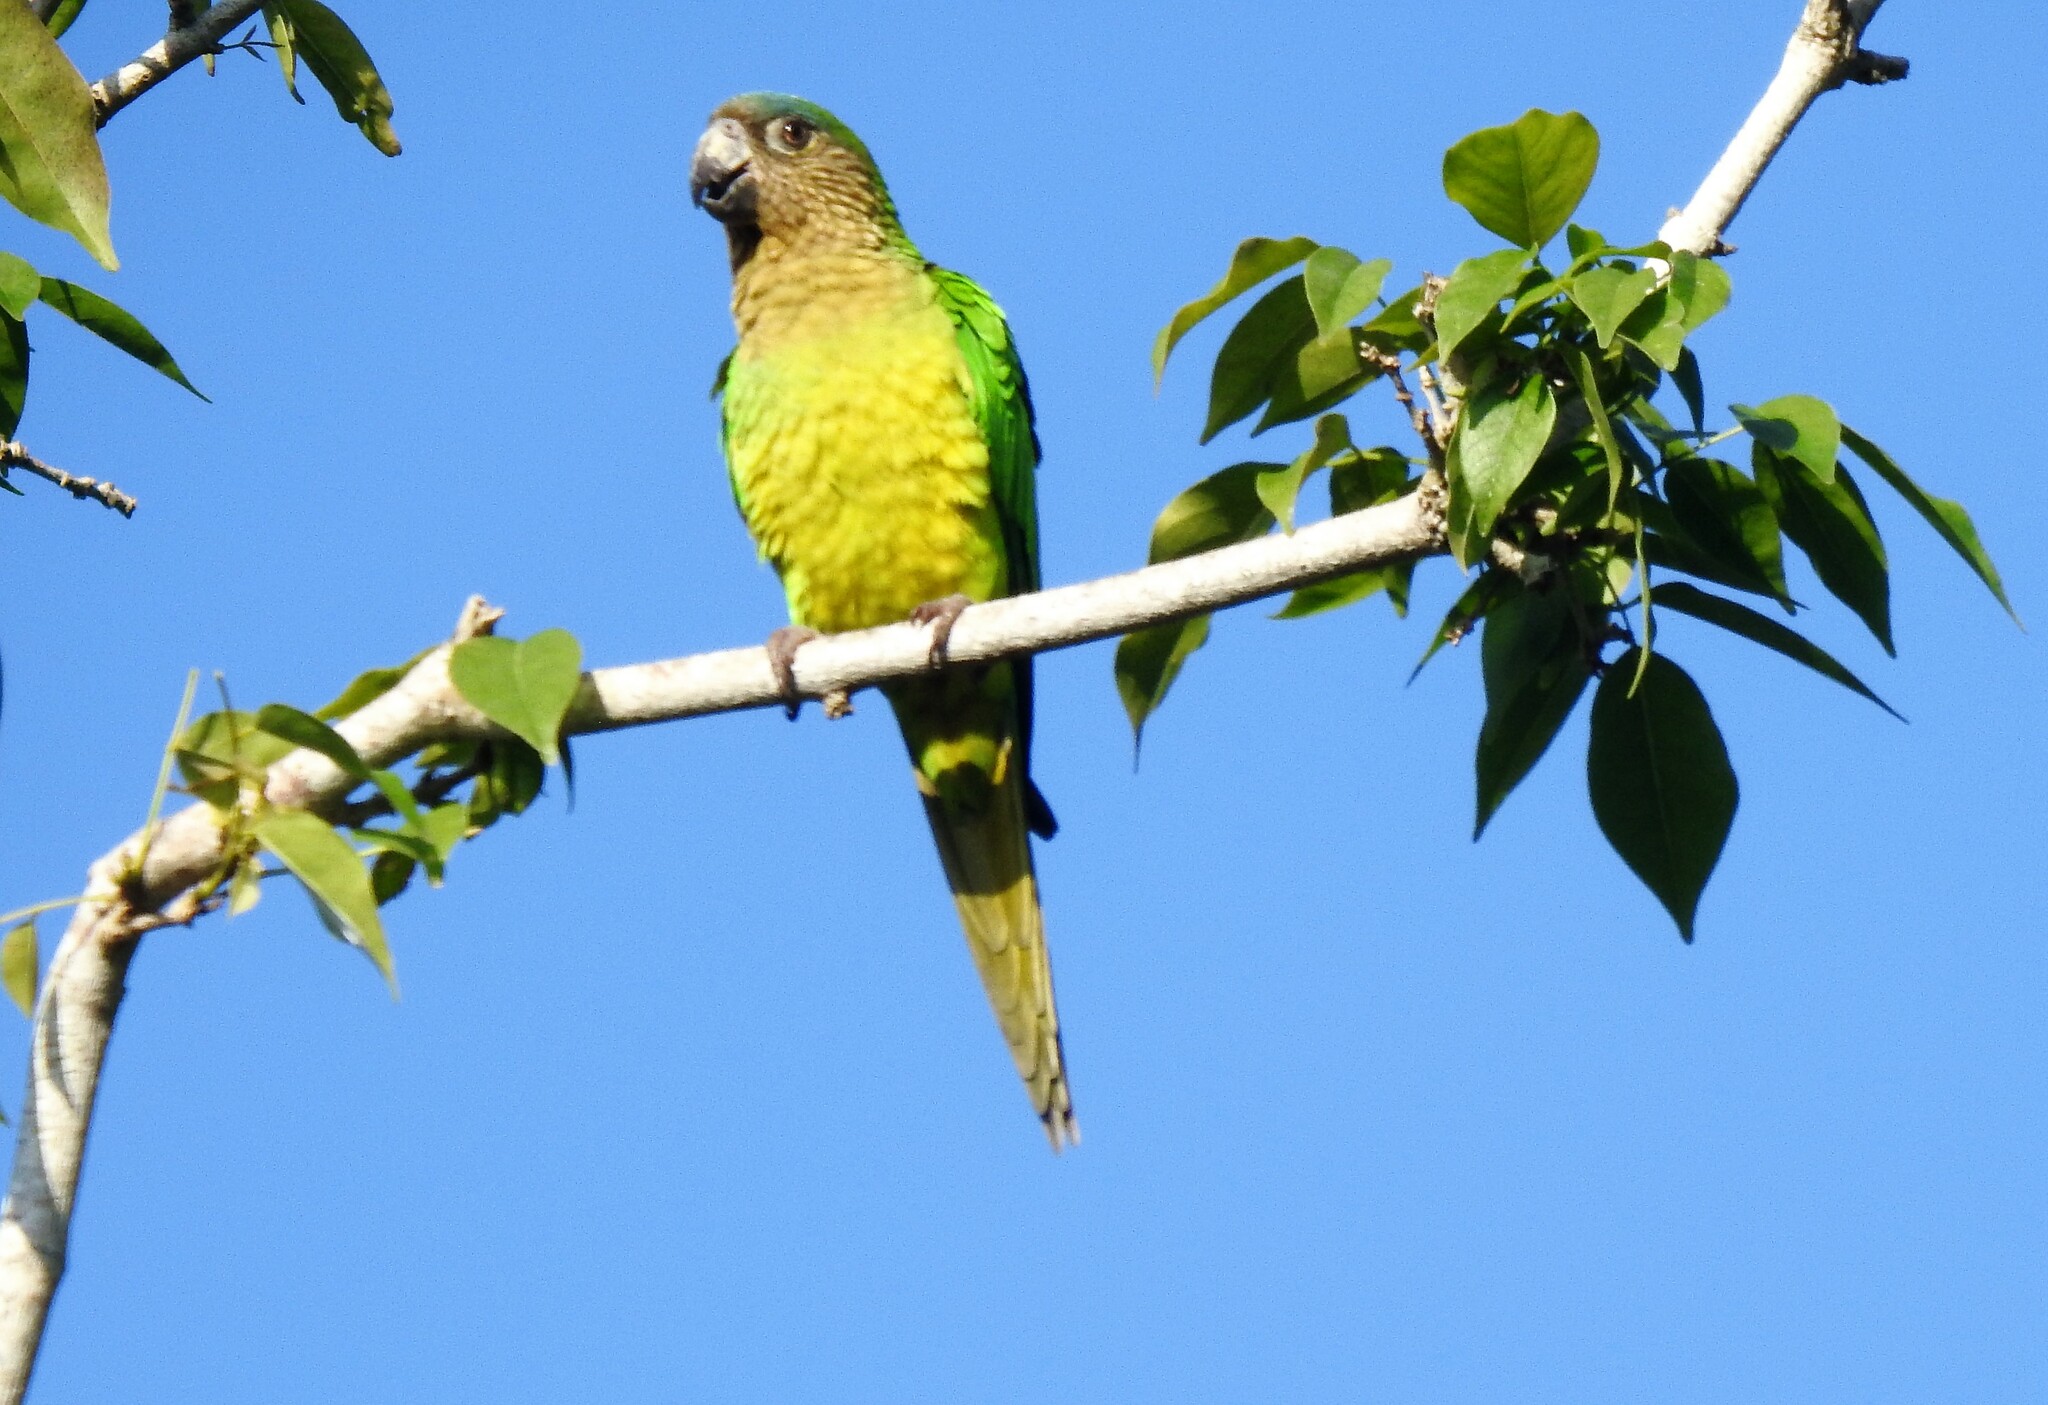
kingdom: Animalia
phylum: Chordata
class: Aves
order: Psittaciformes
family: Psittacidae
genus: Aratinga
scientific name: Aratinga pertinax
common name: Brown-throated parakeet
